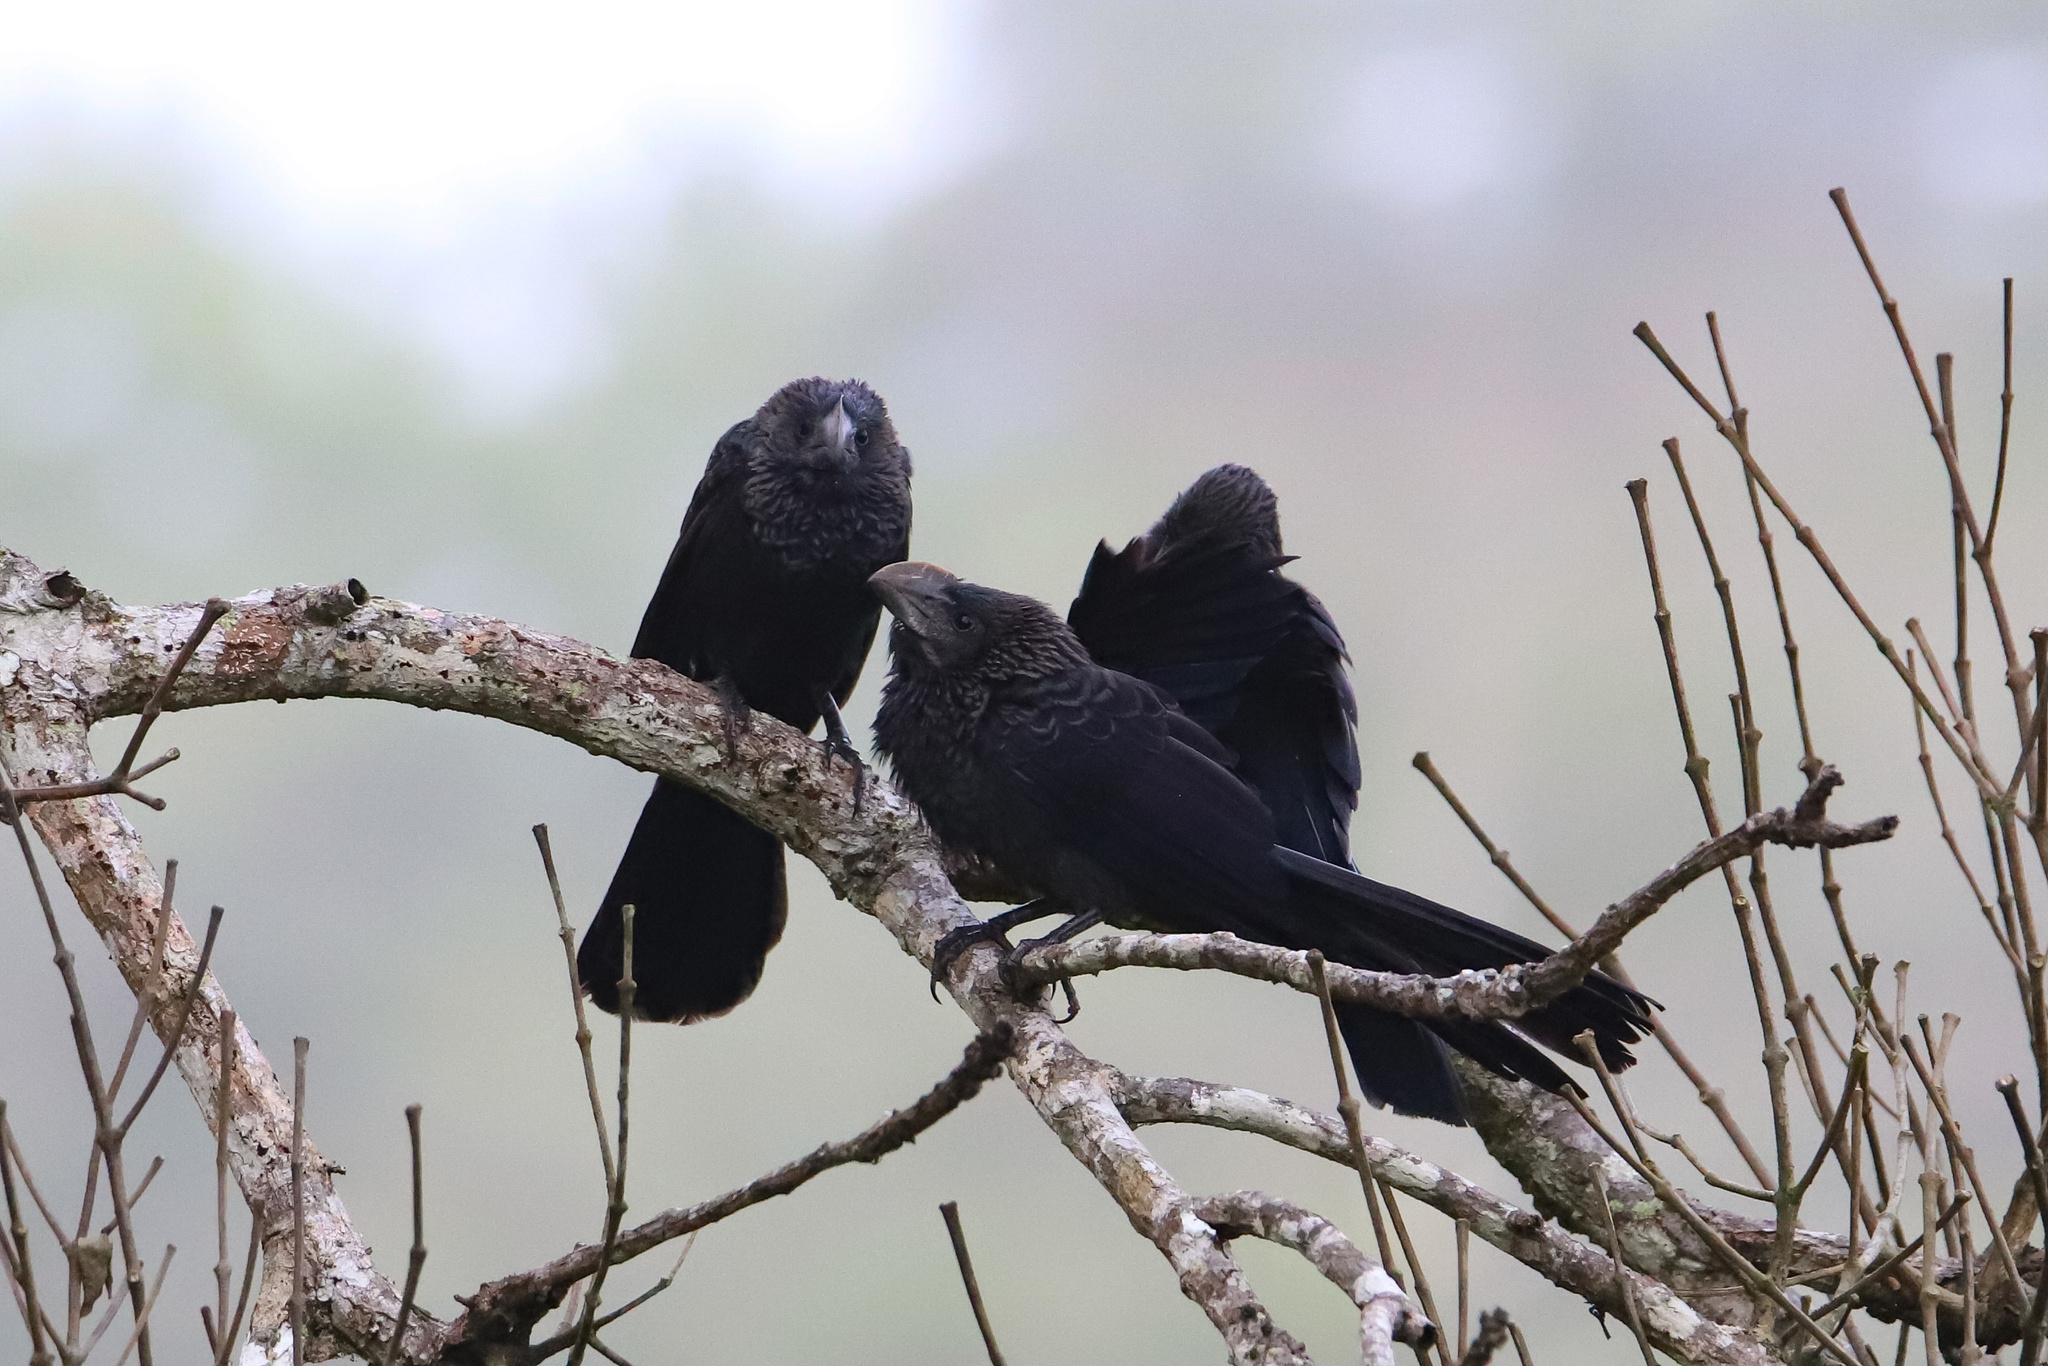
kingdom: Animalia
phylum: Chordata
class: Aves
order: Cuculiformes
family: Cuculidae
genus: Crotophaga
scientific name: Crotophaga ani
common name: Smooth-billed ani
